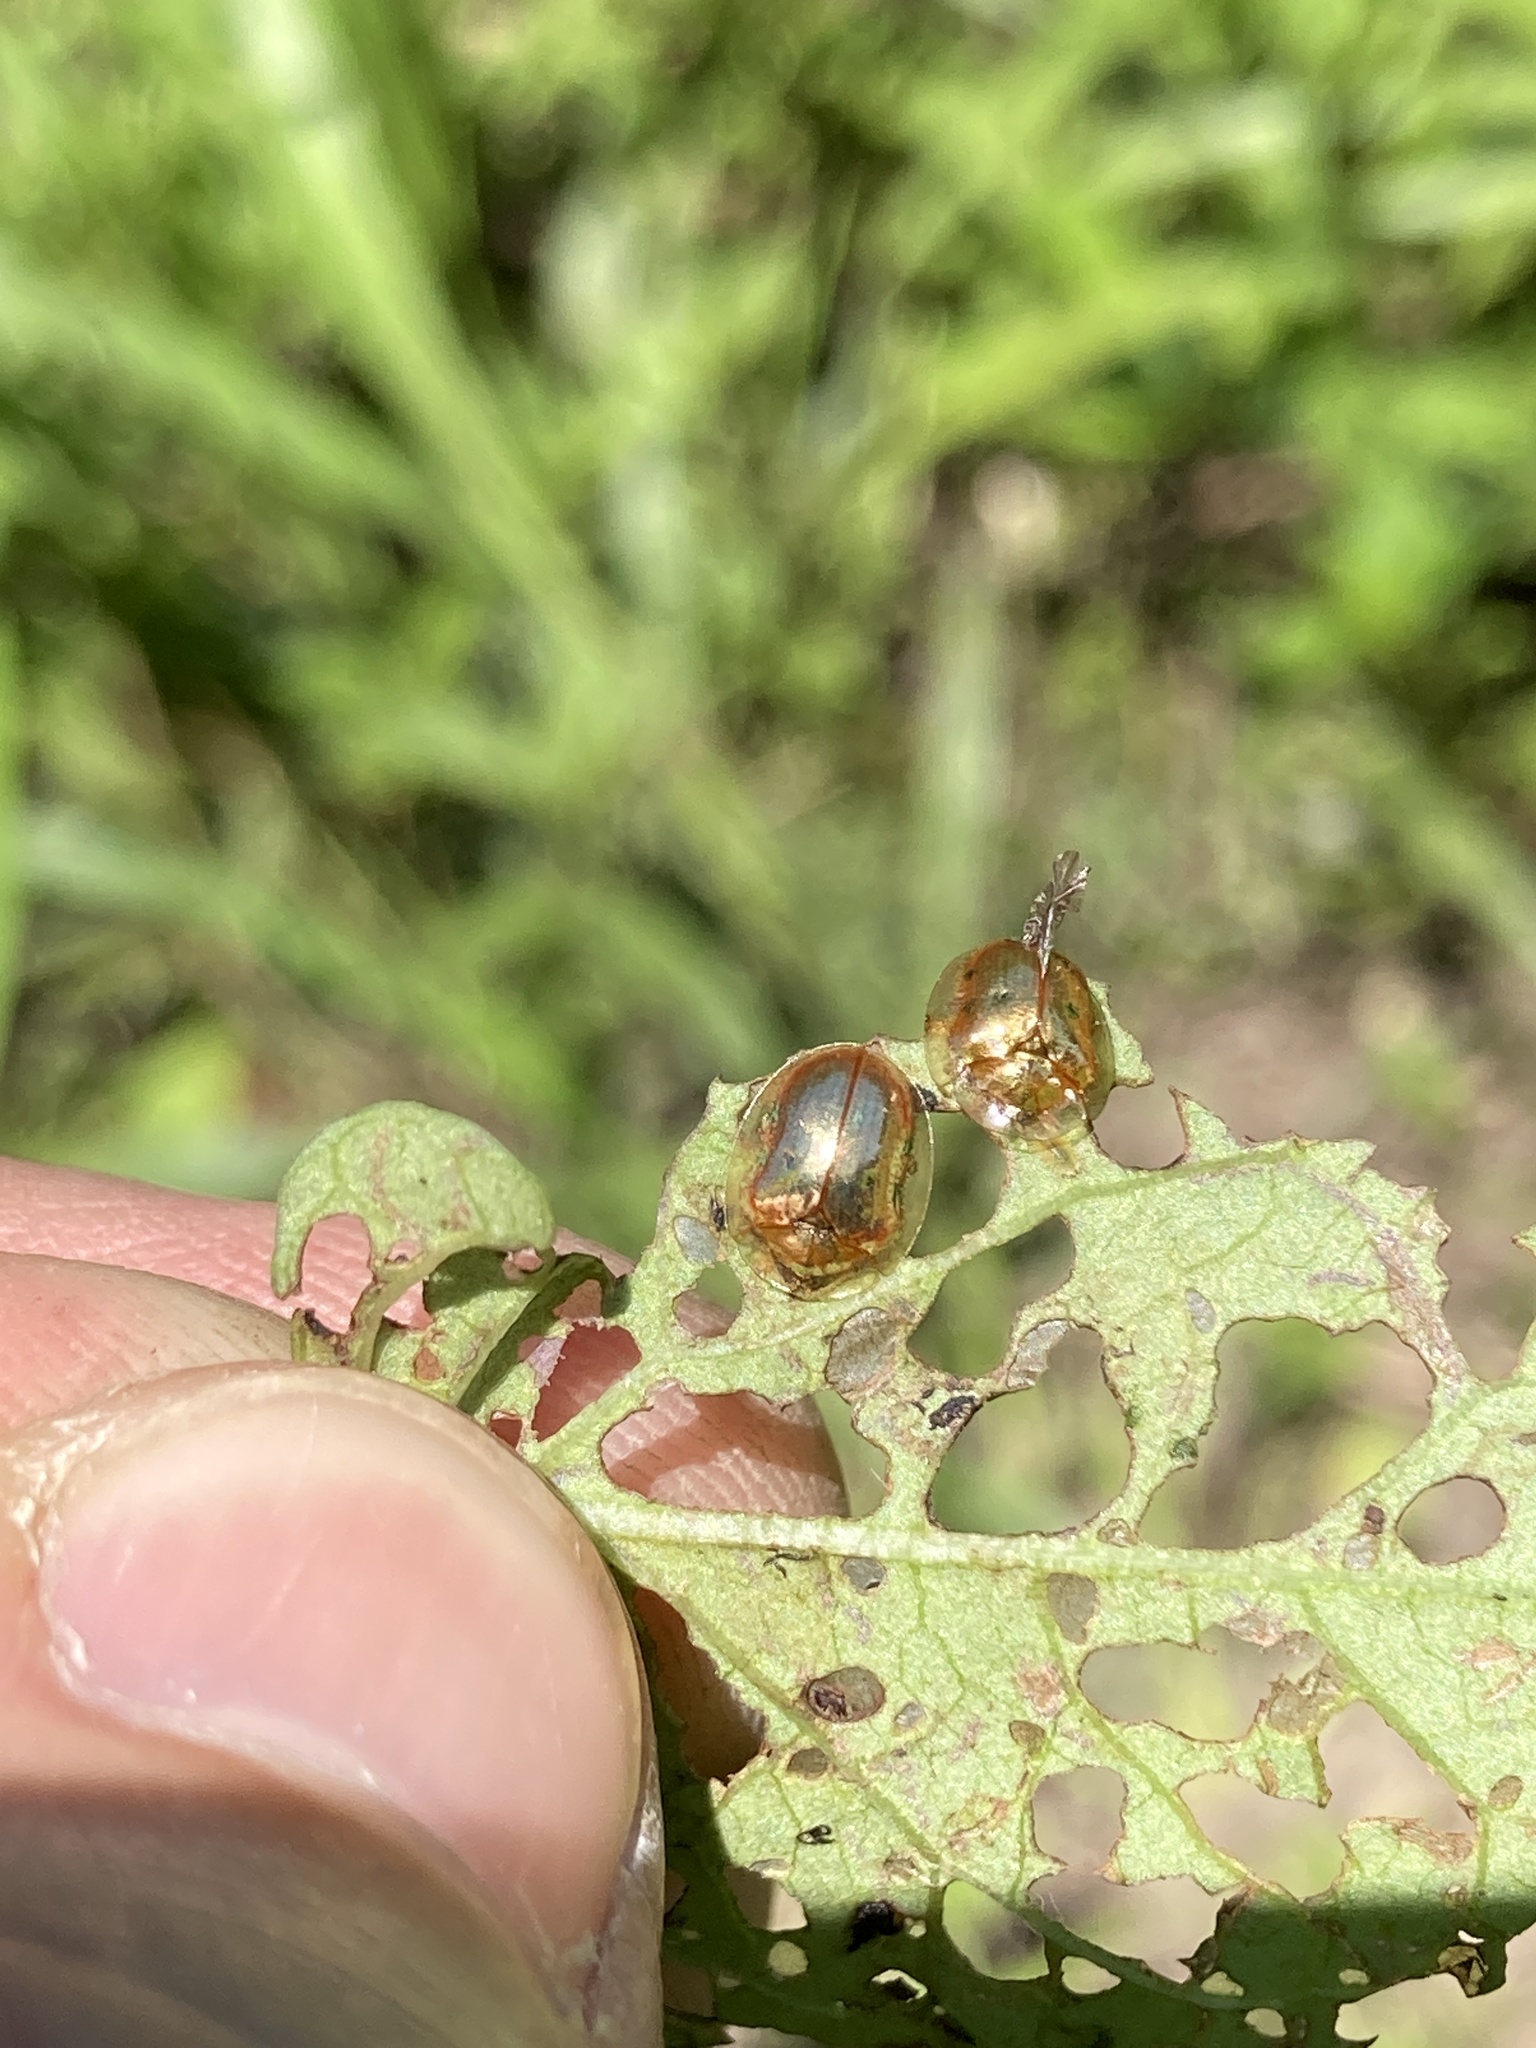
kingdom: Animalia
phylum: Arthropoda
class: Insecta
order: Coleoptera
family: Chrysomelidae
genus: Charidotella
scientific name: Charidotella sexpunctata
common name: Golden tortoise beetle
